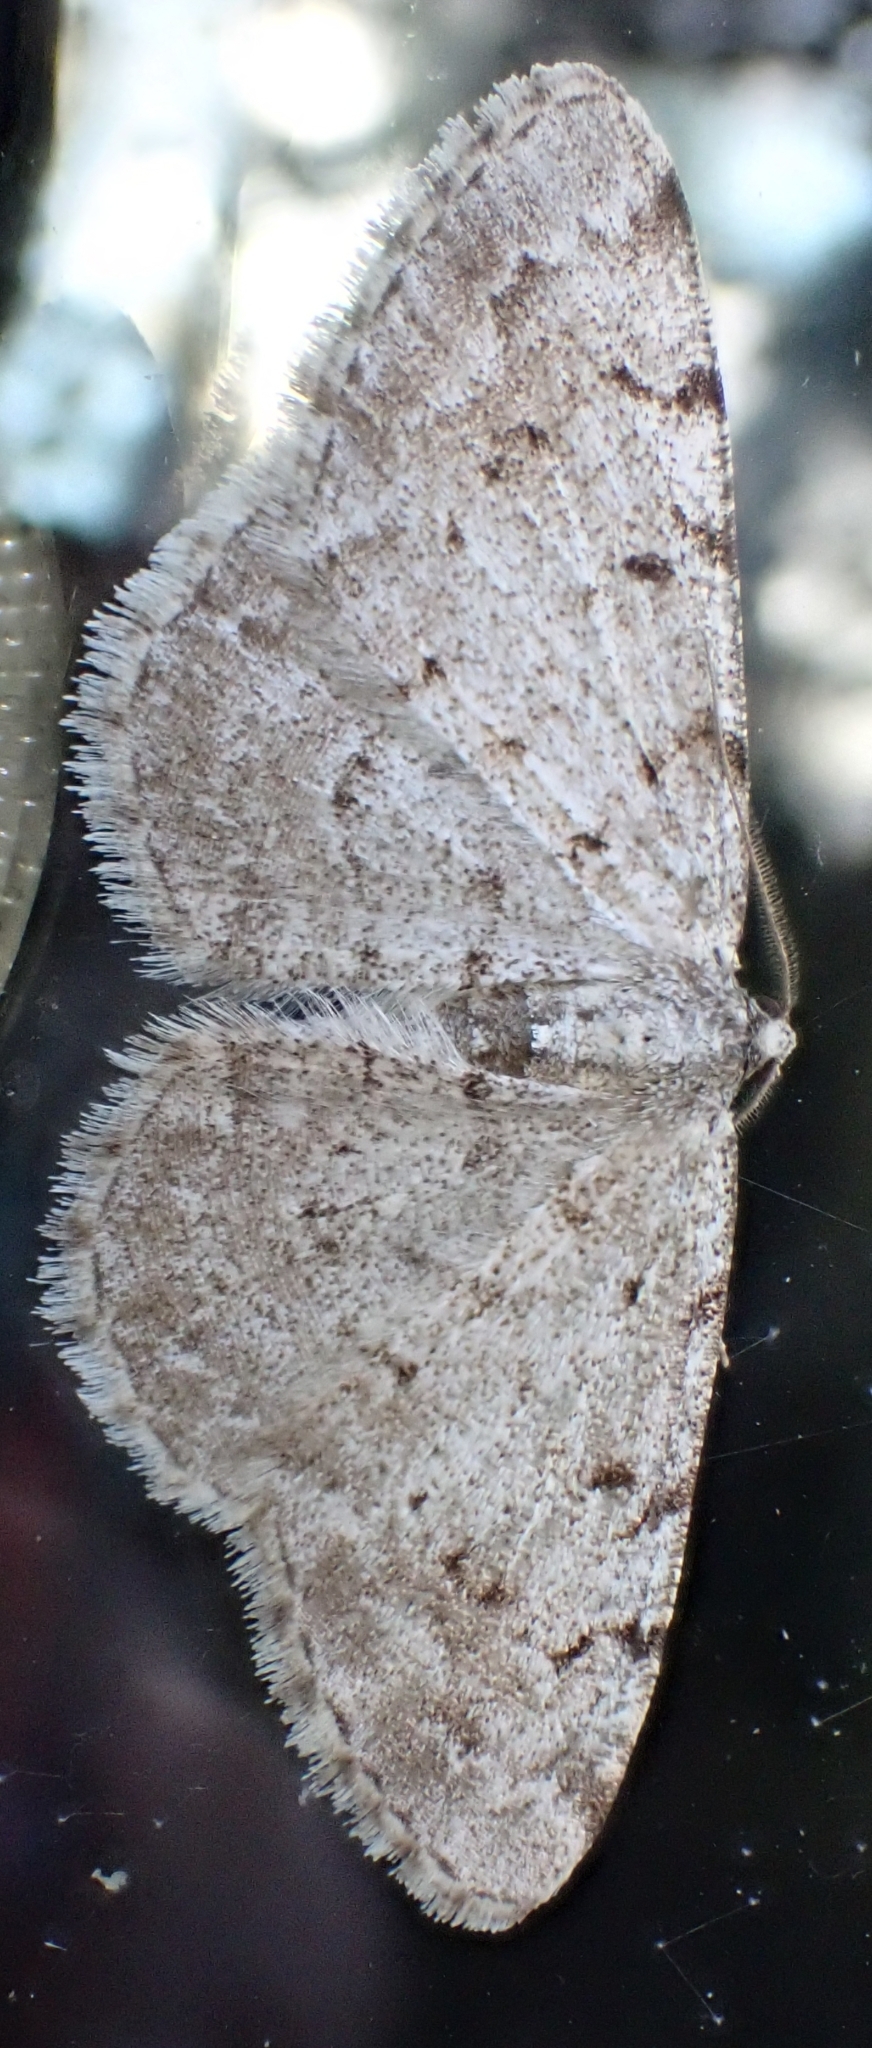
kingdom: Animalia
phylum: Arthropoda
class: Insecta
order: Lepidoptera
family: Geometridae
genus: Aethalura
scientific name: Aethalura punctulata
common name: Grey birch
